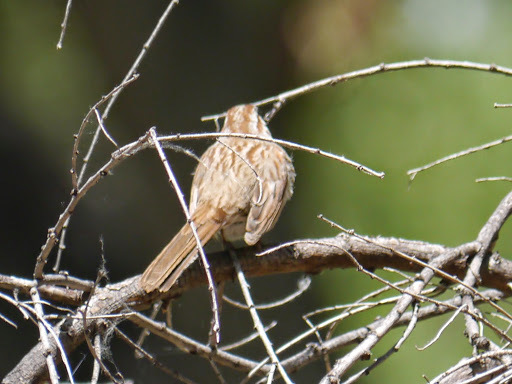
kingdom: Animalia
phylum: Chordata
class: Aves
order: Passeriformes
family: Passerellidae
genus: Melospiza
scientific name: Melospiza melodia
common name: Song sparrow
